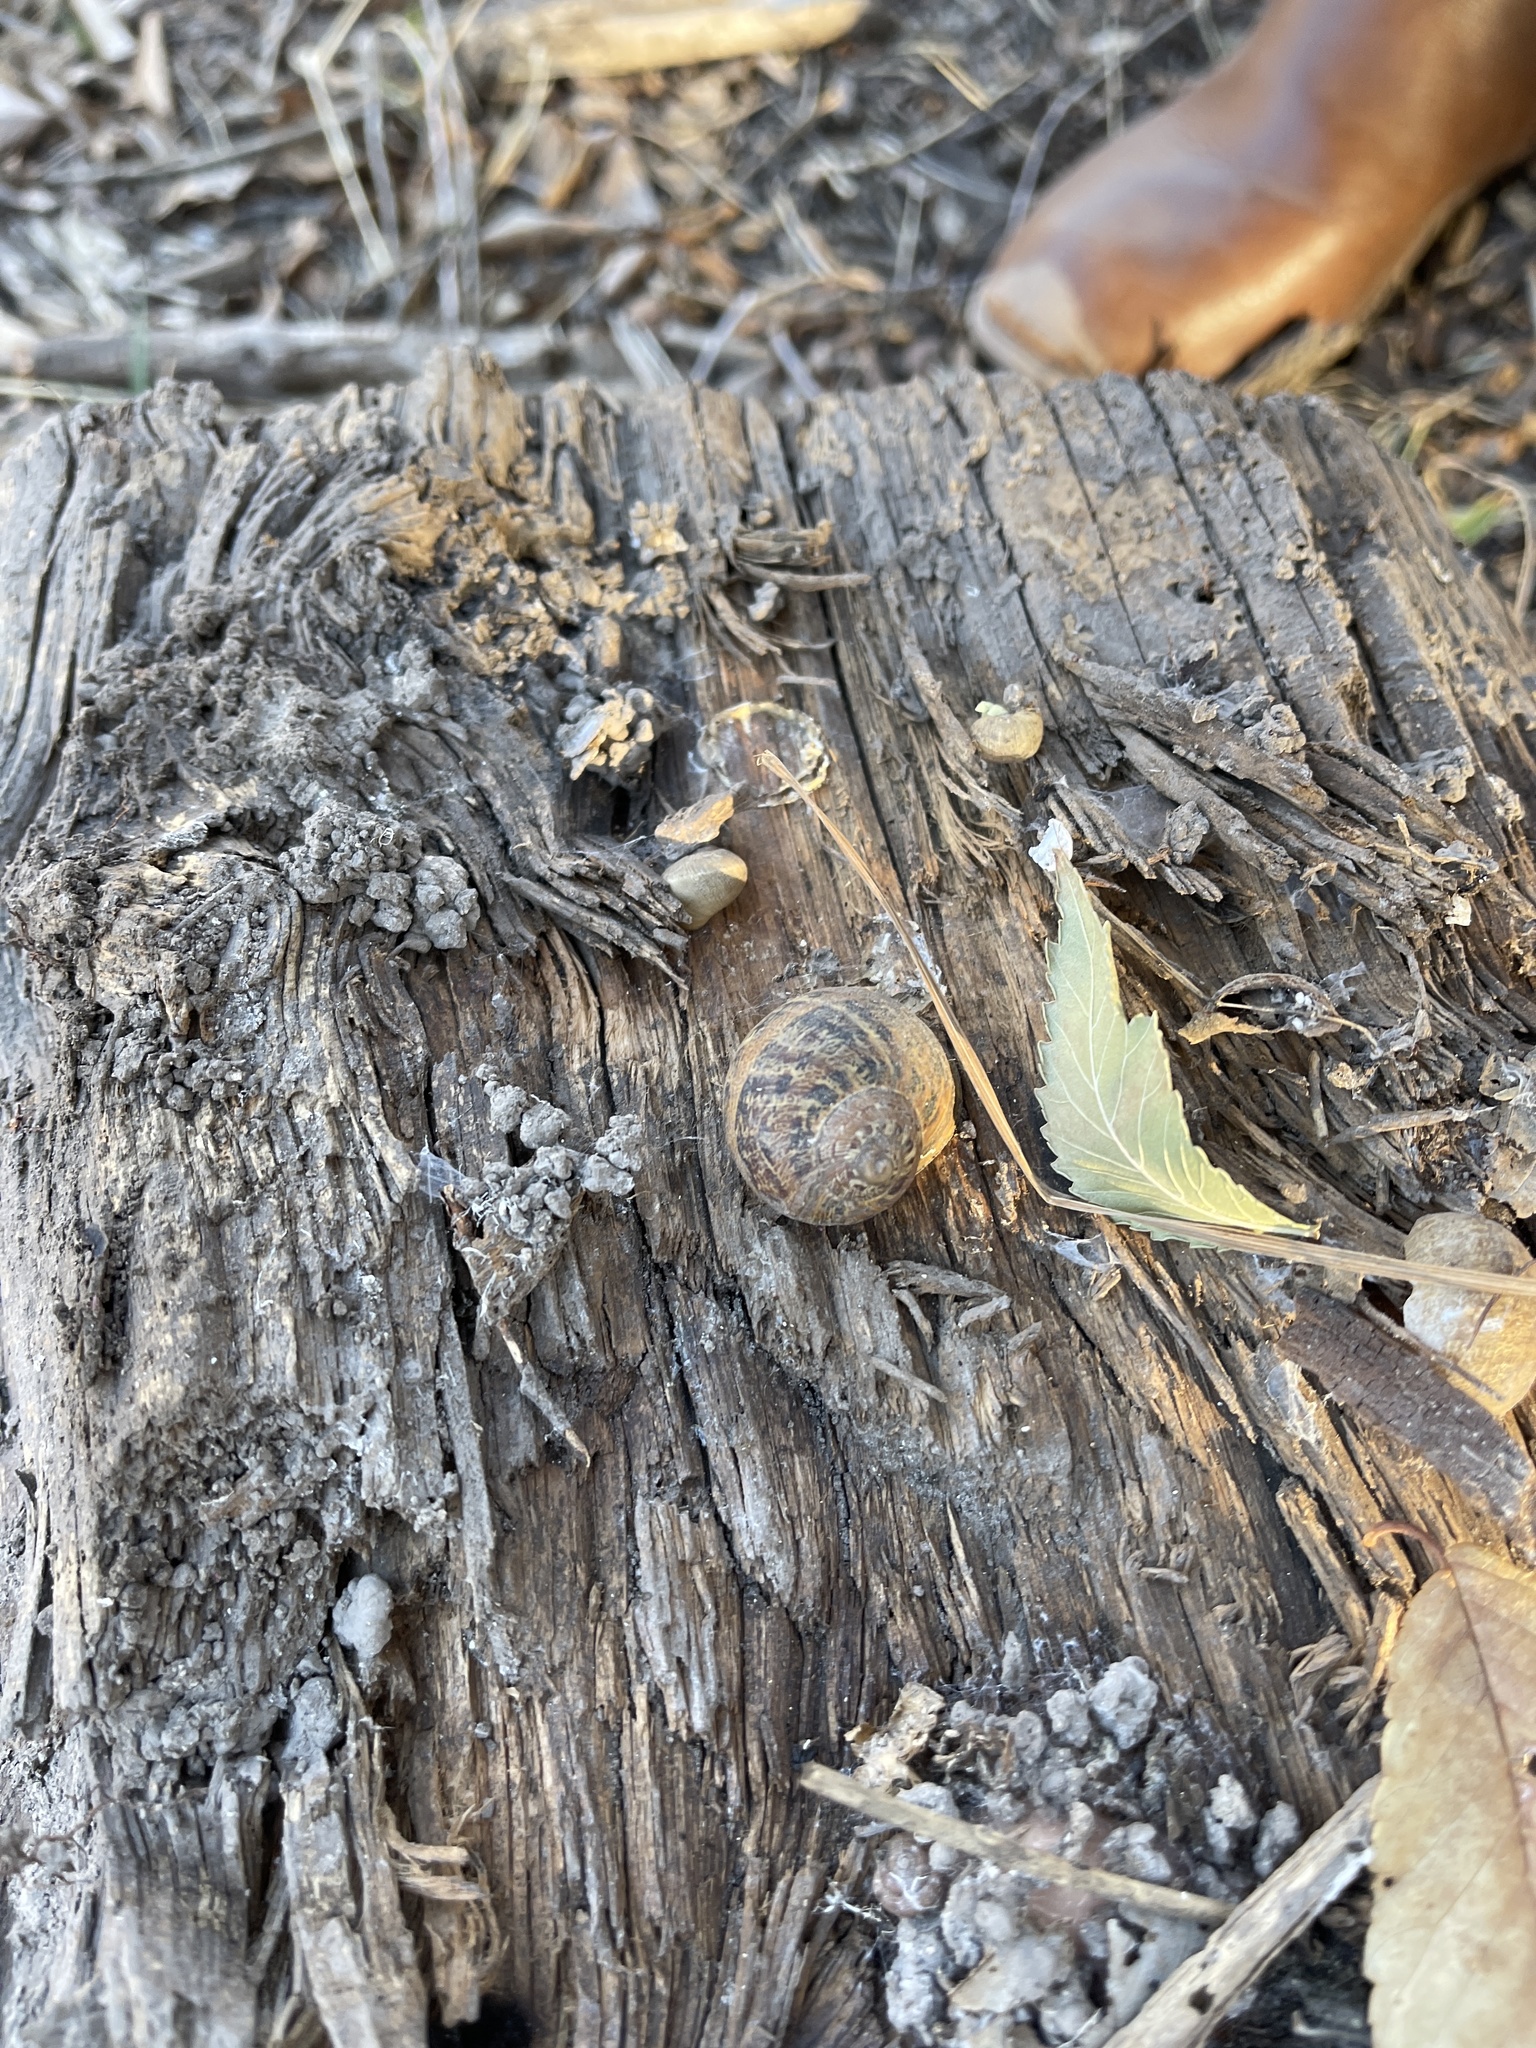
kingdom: Animalia
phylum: Mollusca
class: Gastropoda
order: Stylommatophora
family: Helicidae
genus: Cornu
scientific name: Cornu aspersum
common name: Brown garden snail
